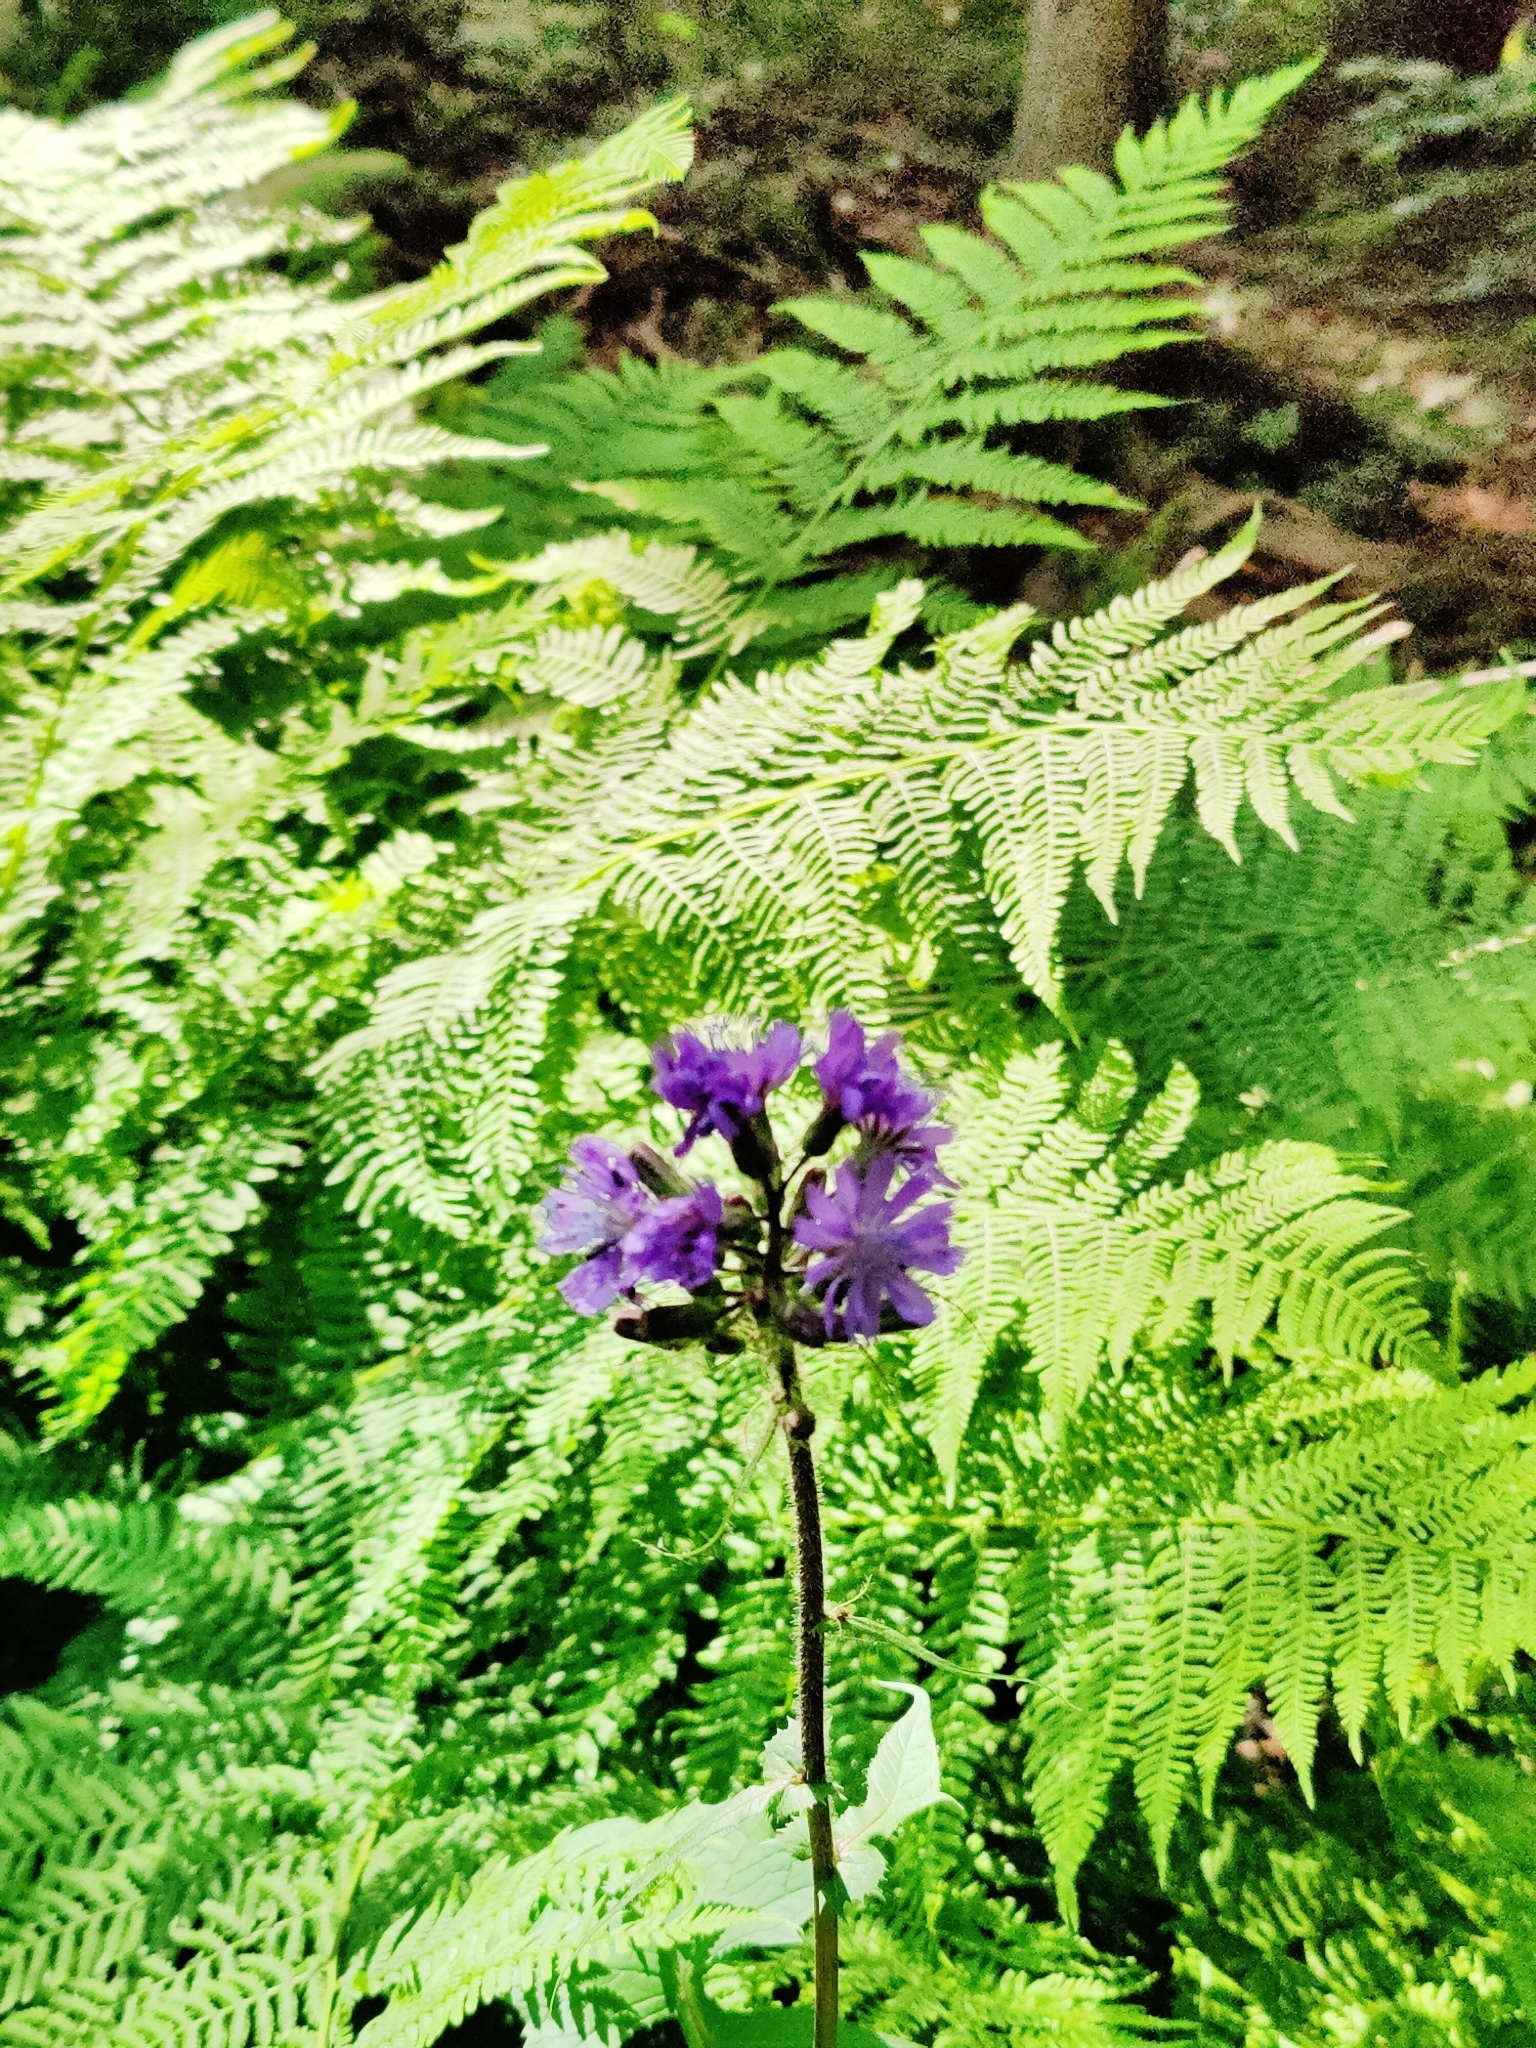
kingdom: Plantae
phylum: Tracheophyta
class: Magnoliopsida
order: Asterales
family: Asteraceae
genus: Cicerbita
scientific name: Cicerbita alpina
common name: Alpine blue-sow-thistle
